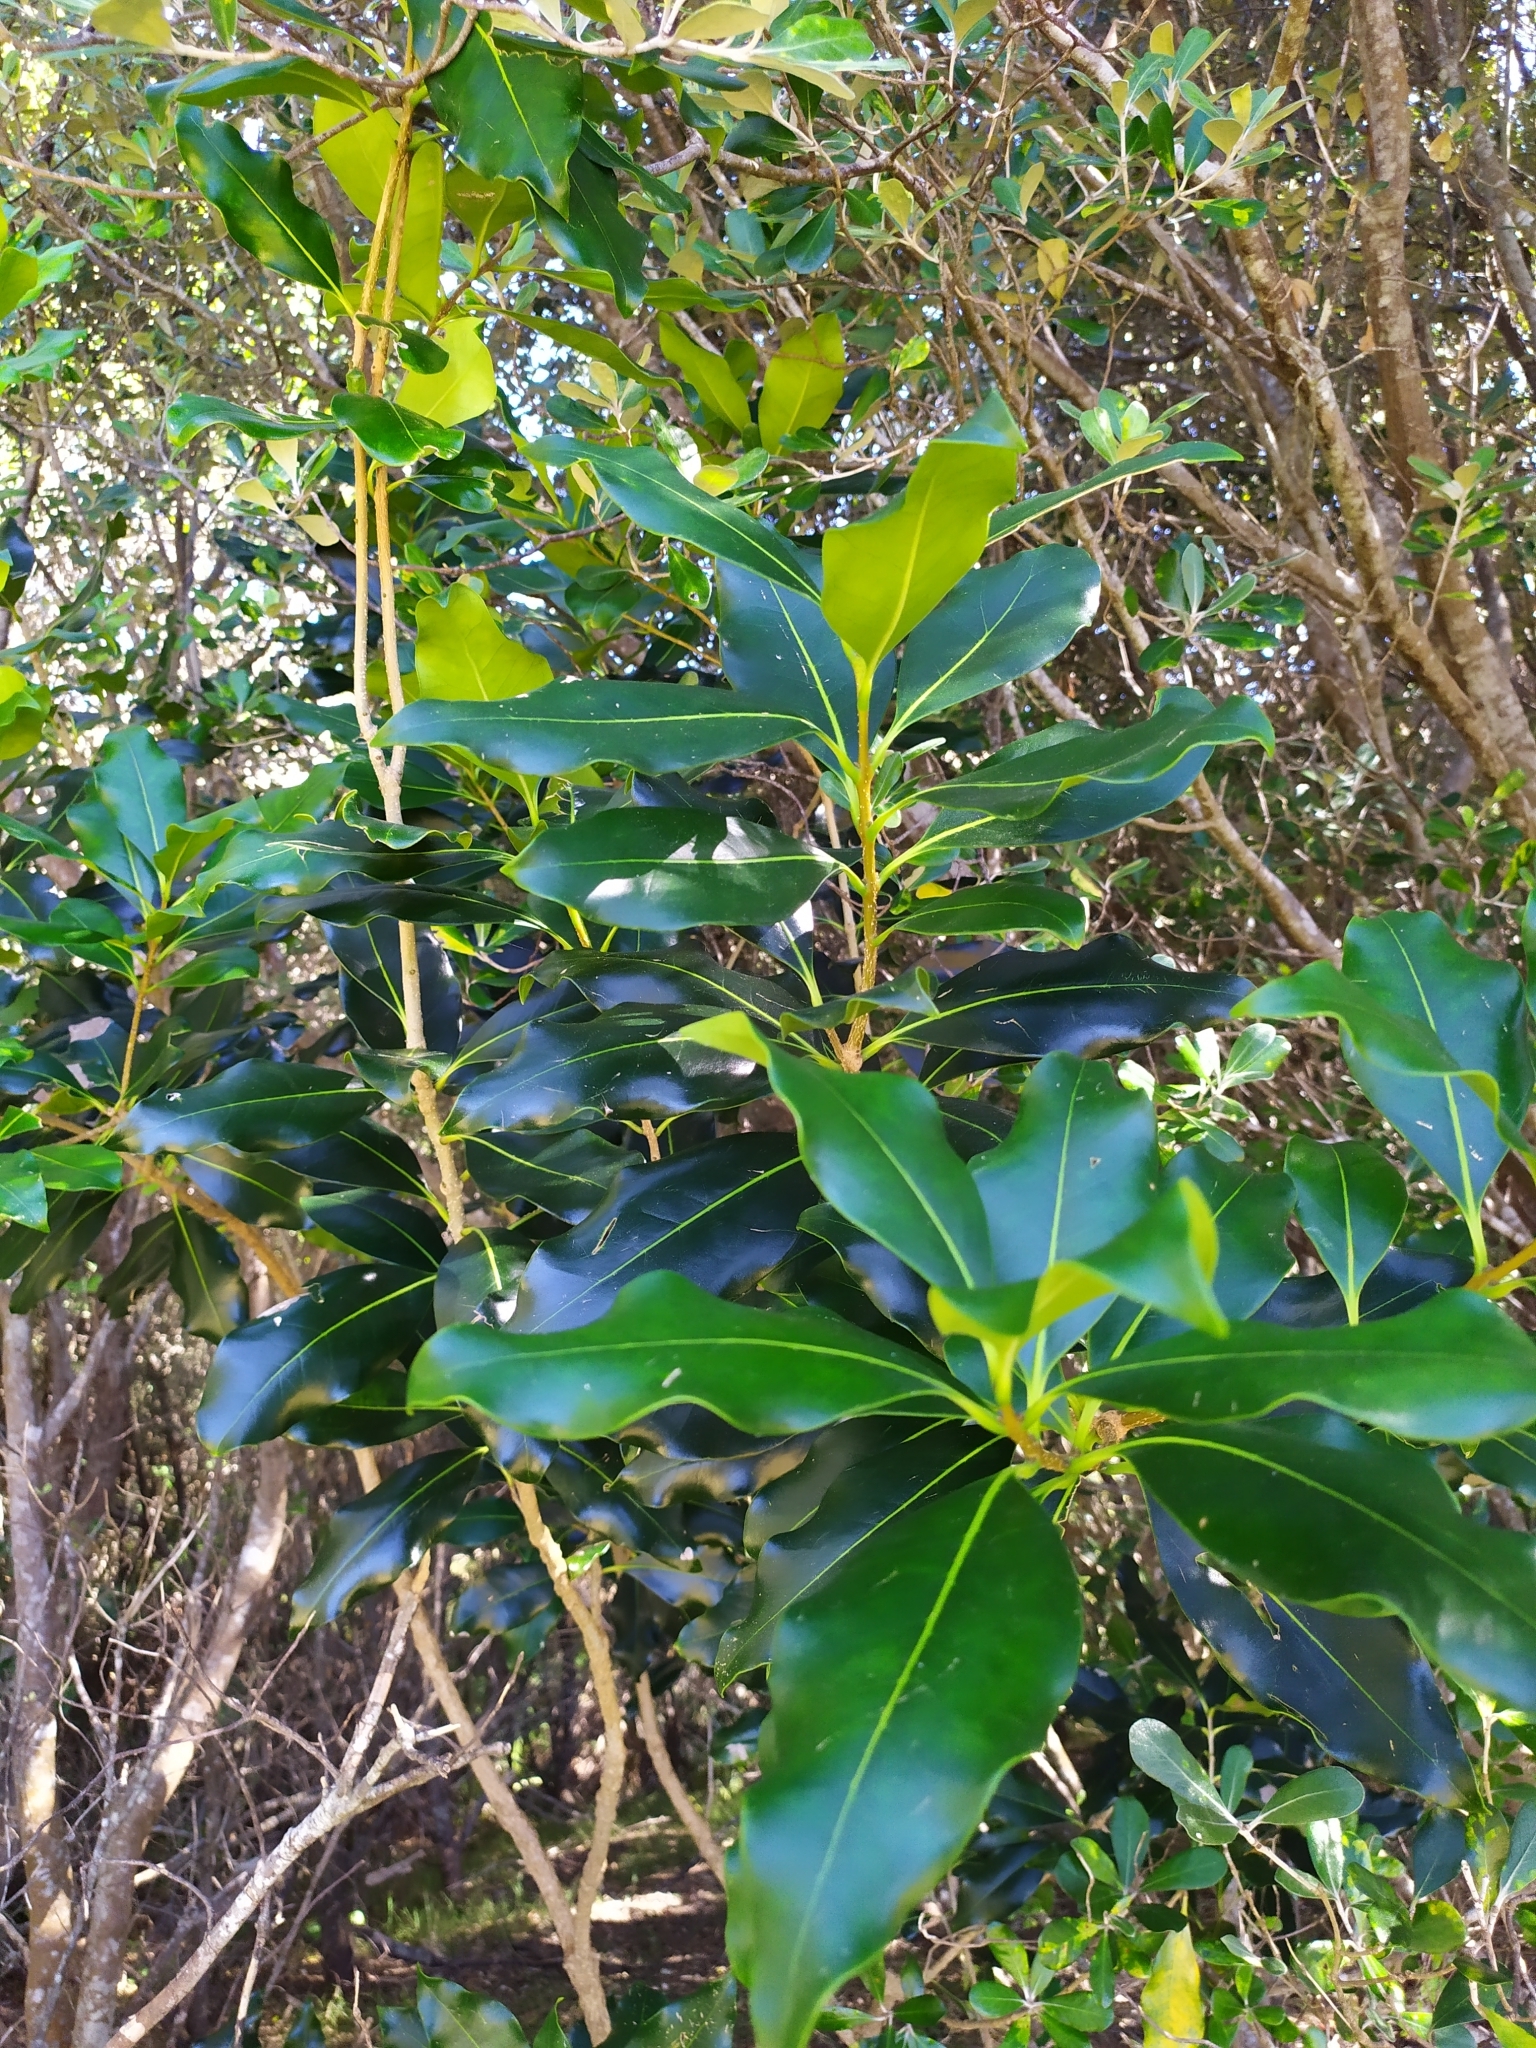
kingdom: Plantae
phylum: Tracheophyta
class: Magnoliopsida
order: Lamiales
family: Oleaceae
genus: Nestegis
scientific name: Nestegis apetala
